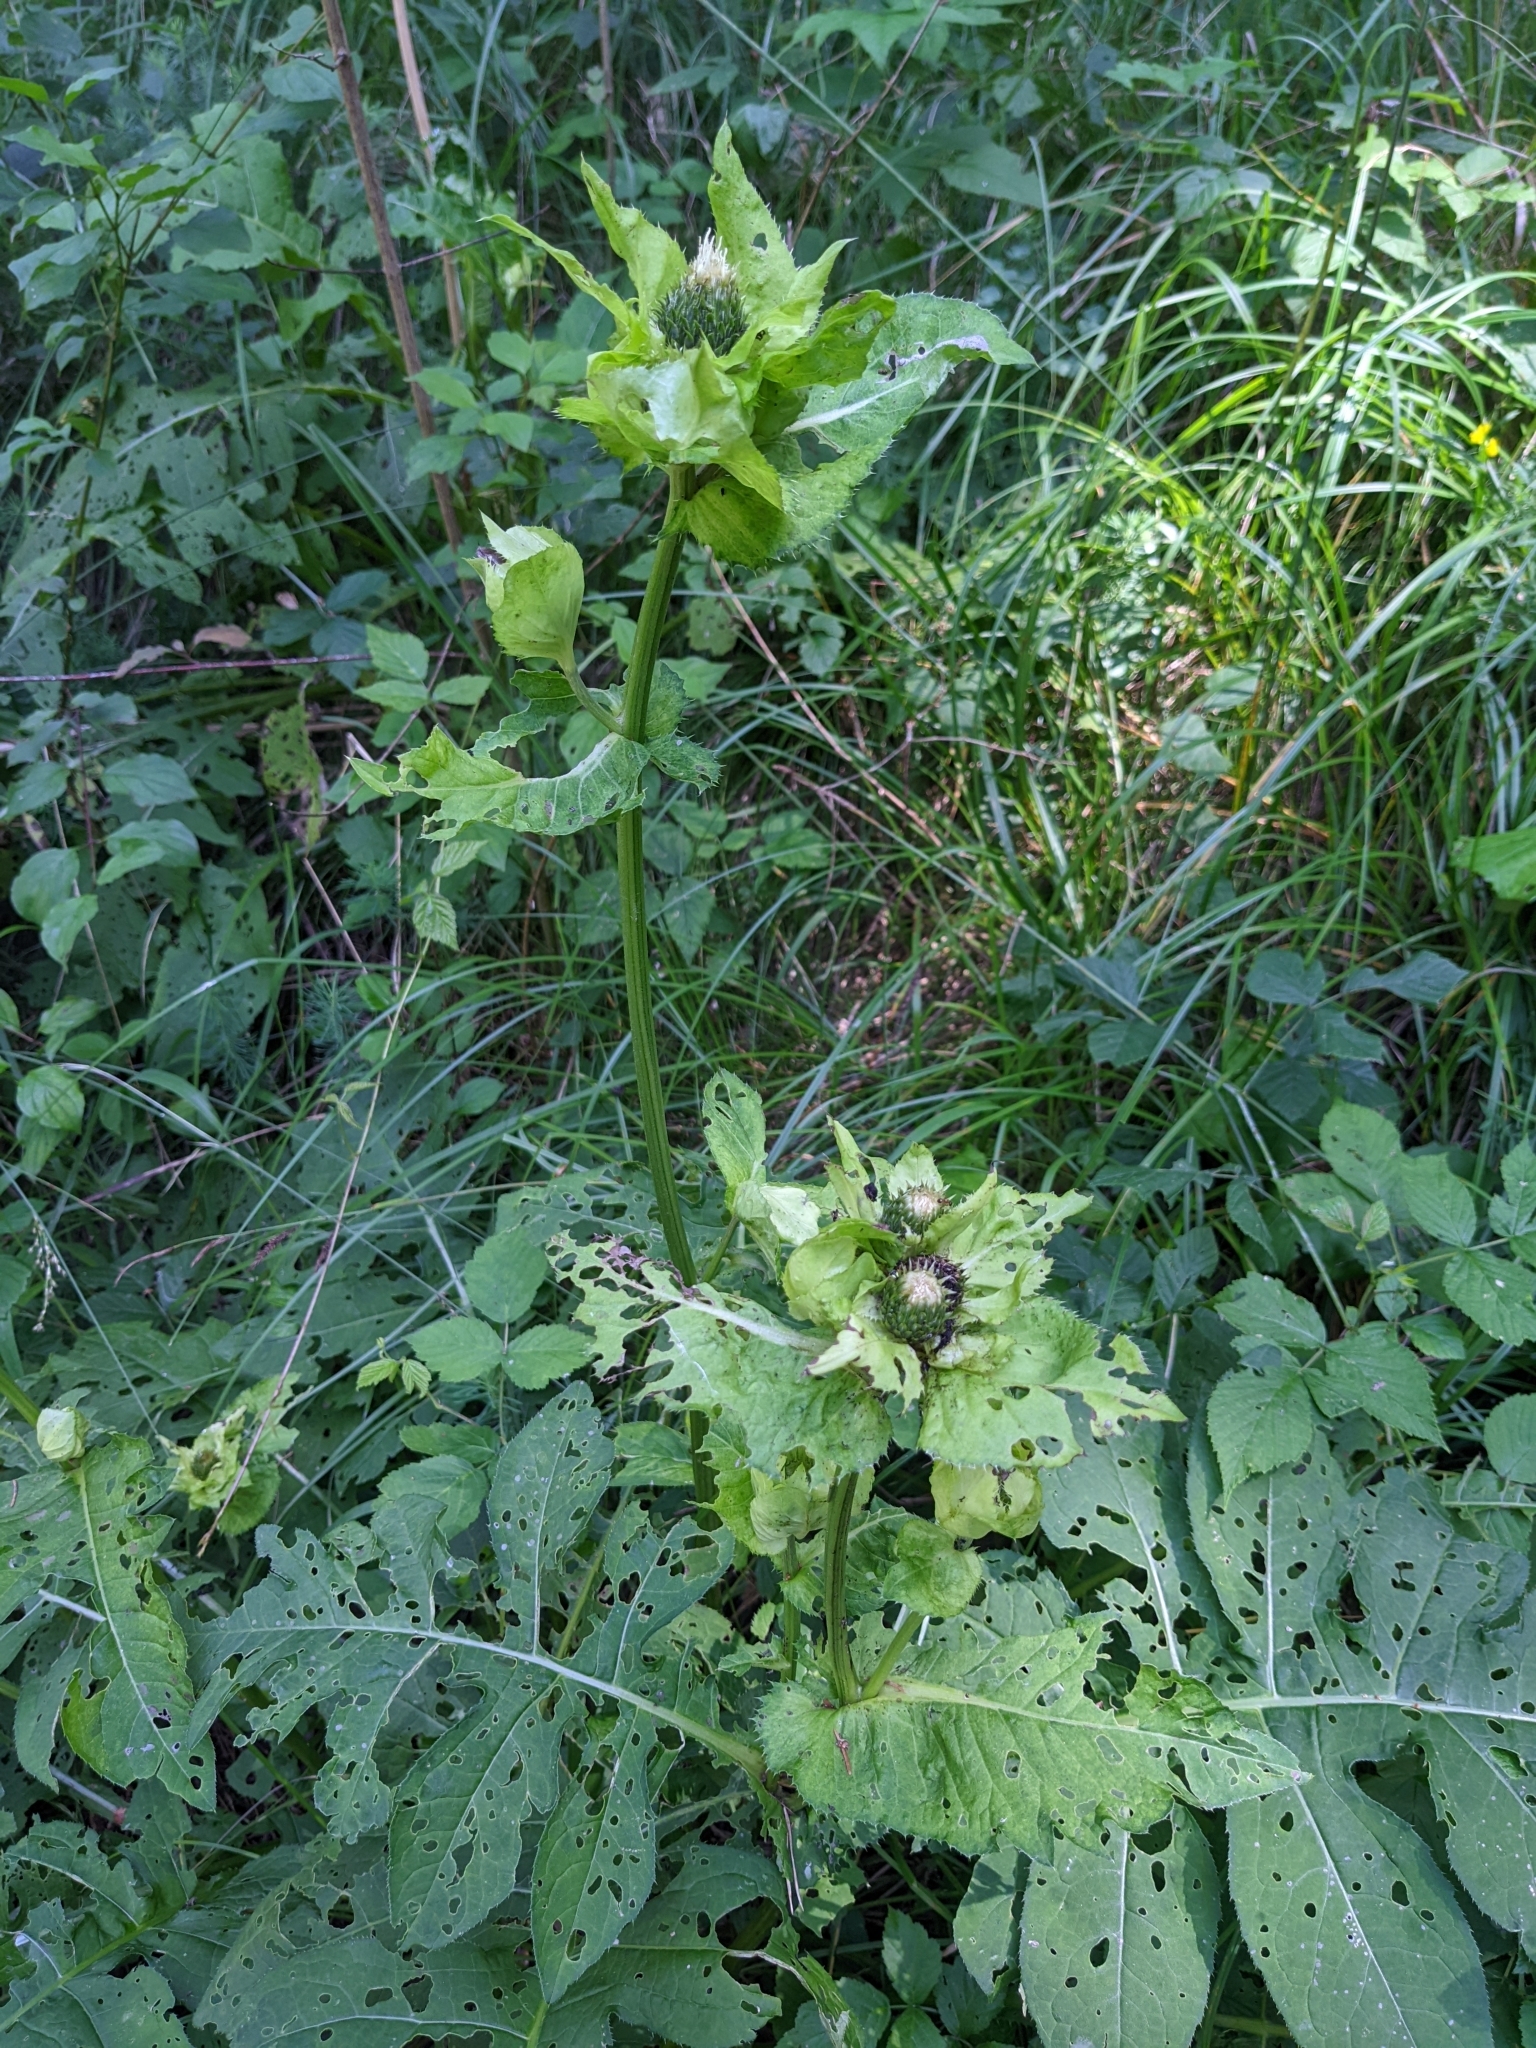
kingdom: Plantae
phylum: Tracheophyta
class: Magnoliopsida
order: Asterales
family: Asteraceae
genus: Cirsium
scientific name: Cirsium oleraceum
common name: Cabbage thistle
